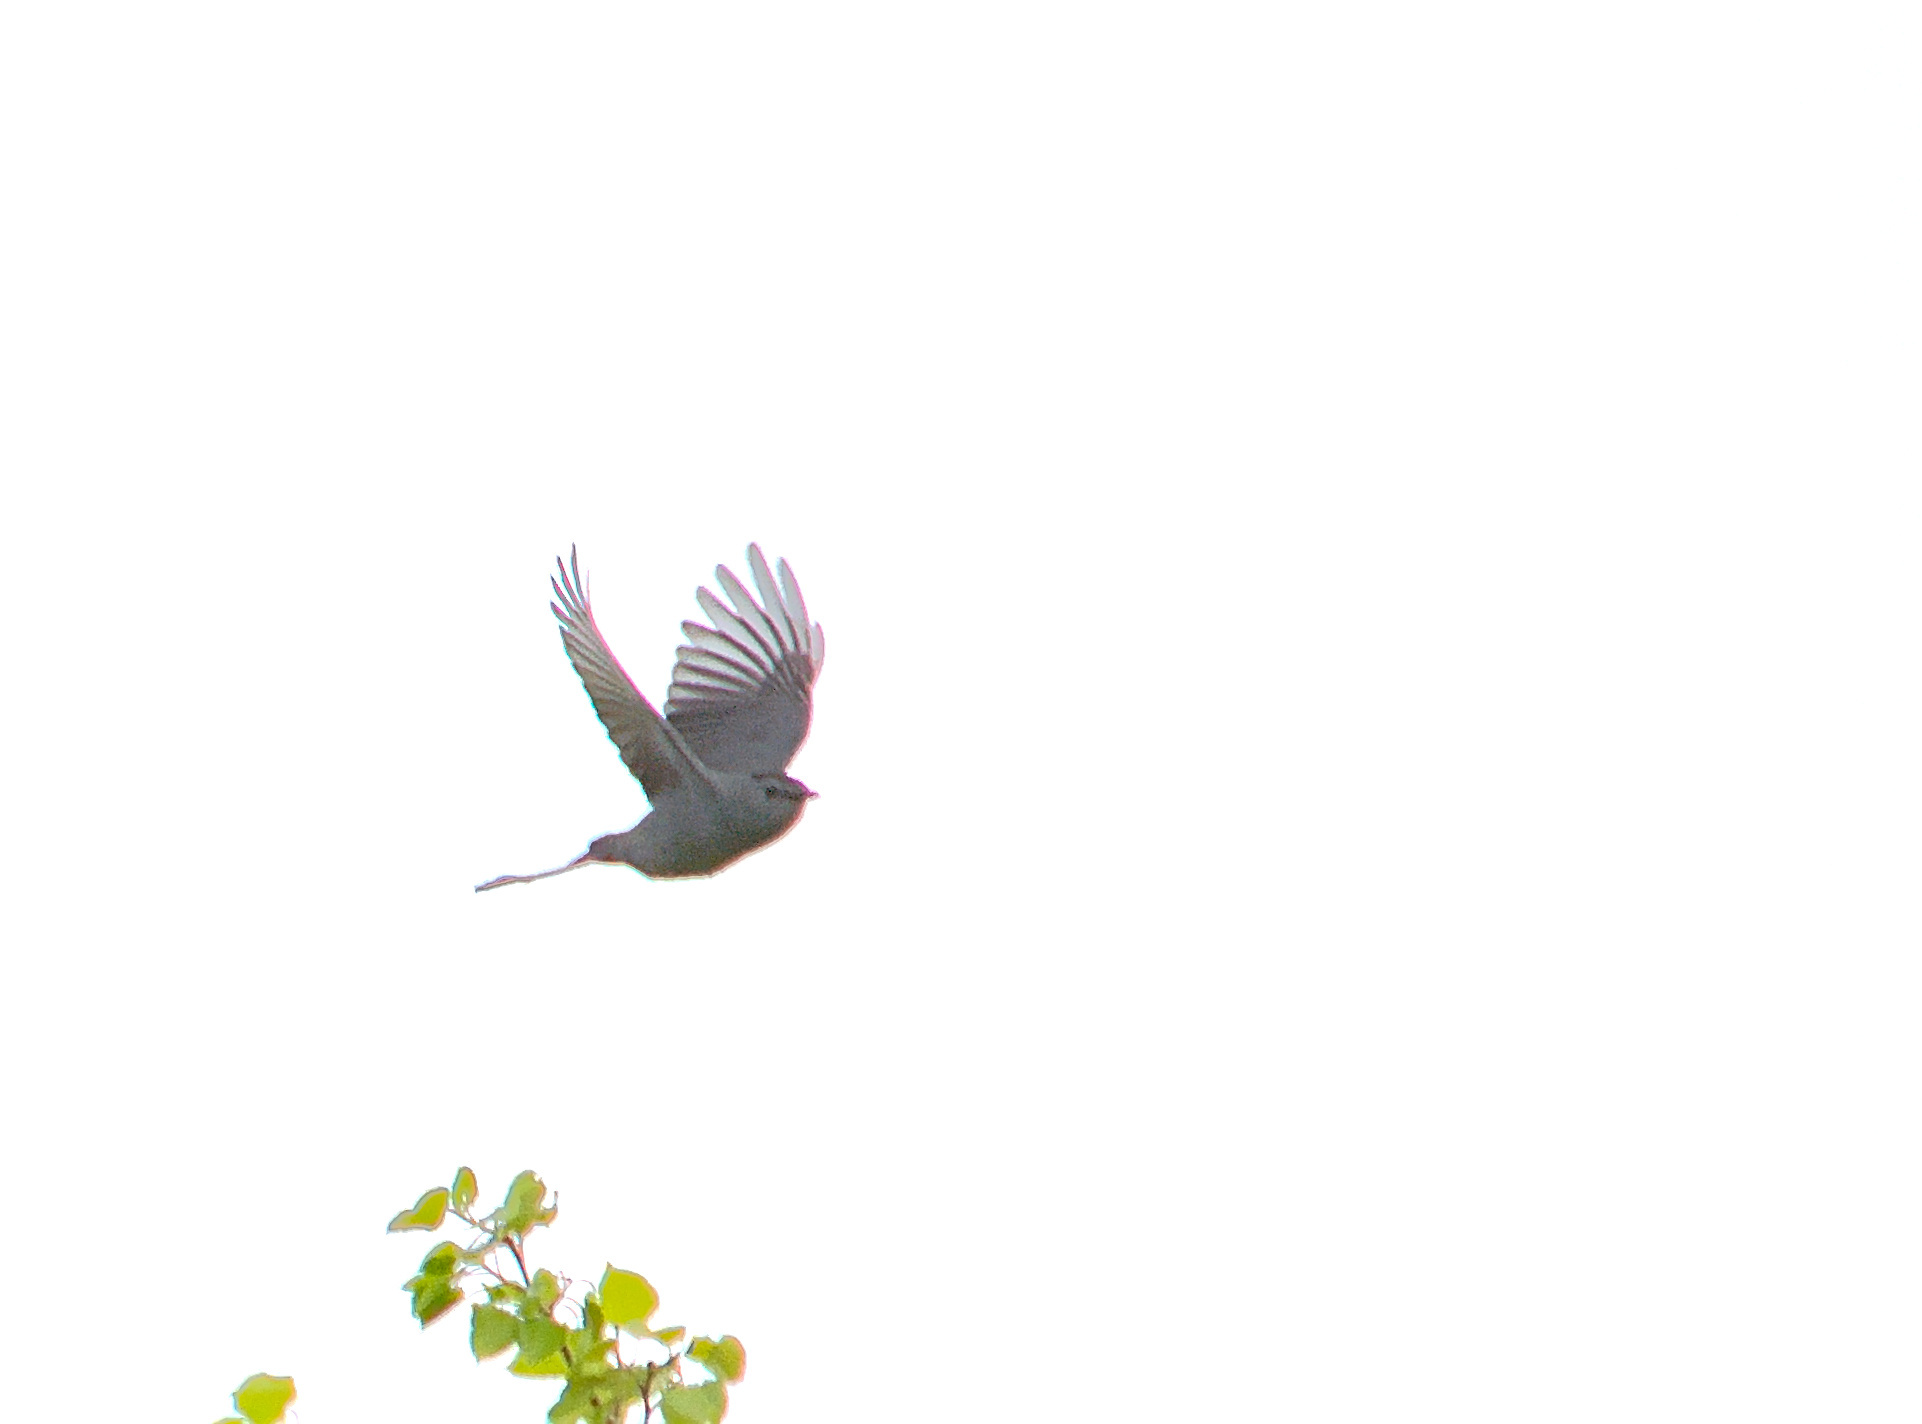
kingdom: Animalia
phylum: Chordata
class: Aves
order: Passeriformes
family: Mimidae
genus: Dumetella
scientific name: Dumetella carolinensis
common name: Gray catbird
